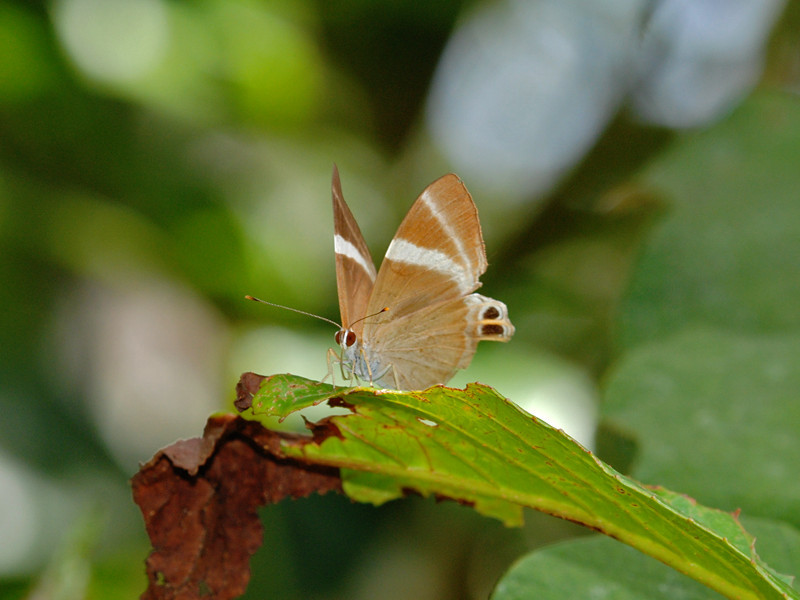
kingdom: Animalia
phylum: Arthropoda
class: Insecta
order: Lepidoptera
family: Lycaenidae
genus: Abisara
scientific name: Abisara neophron
